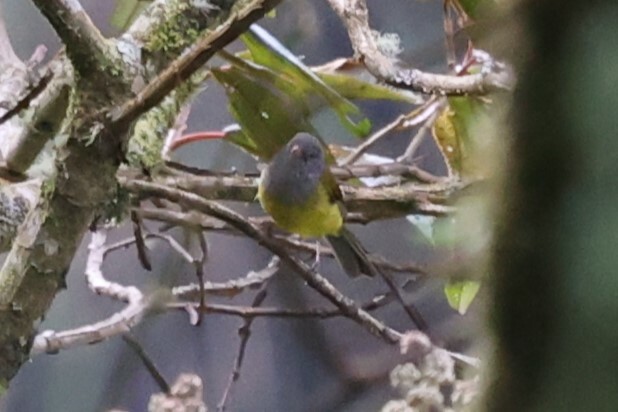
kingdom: Animalia
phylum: Chordata
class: Aves
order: Passeriformes
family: Thraupidae
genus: Cnemoscopus
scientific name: Cnemoscopus rubrirostris
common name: Grey-hooded bush tanager
